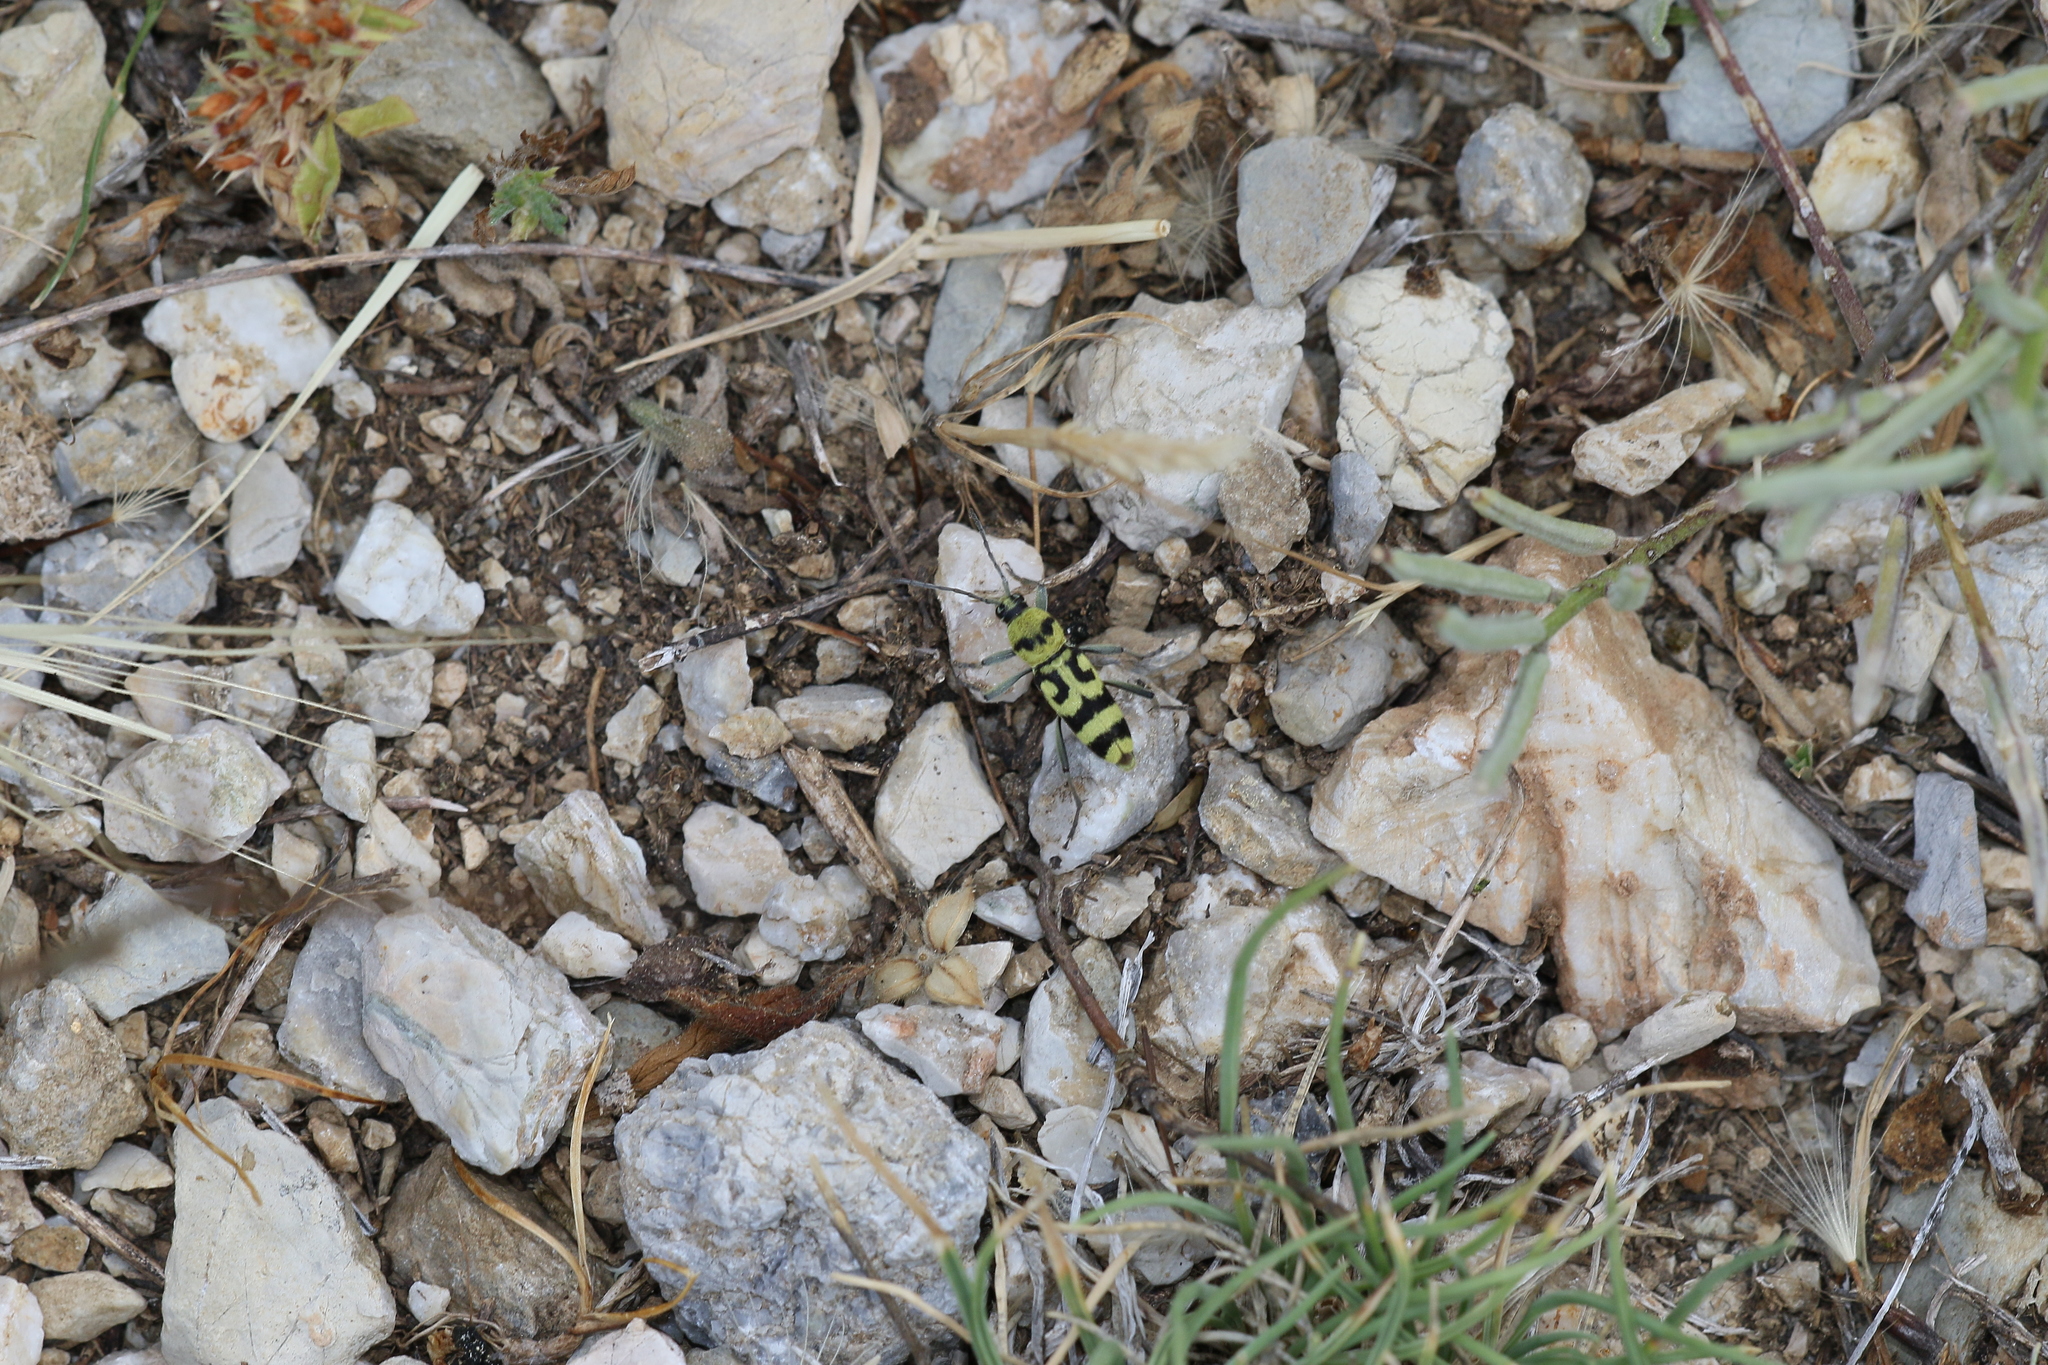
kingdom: Animalia
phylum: Arthropoda
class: Insecta
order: Coleoptera
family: Cerambycidae
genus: Chlorophorus
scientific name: Chlorophorus varius
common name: Grape wood borer
